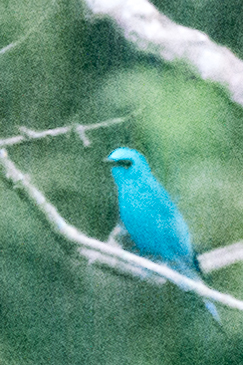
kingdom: Animalia
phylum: Chordata
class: Aves
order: Passeriformes
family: Muscicapidae
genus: Eumyias
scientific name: Eumyias thalassinus
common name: Verditer flycatcher
